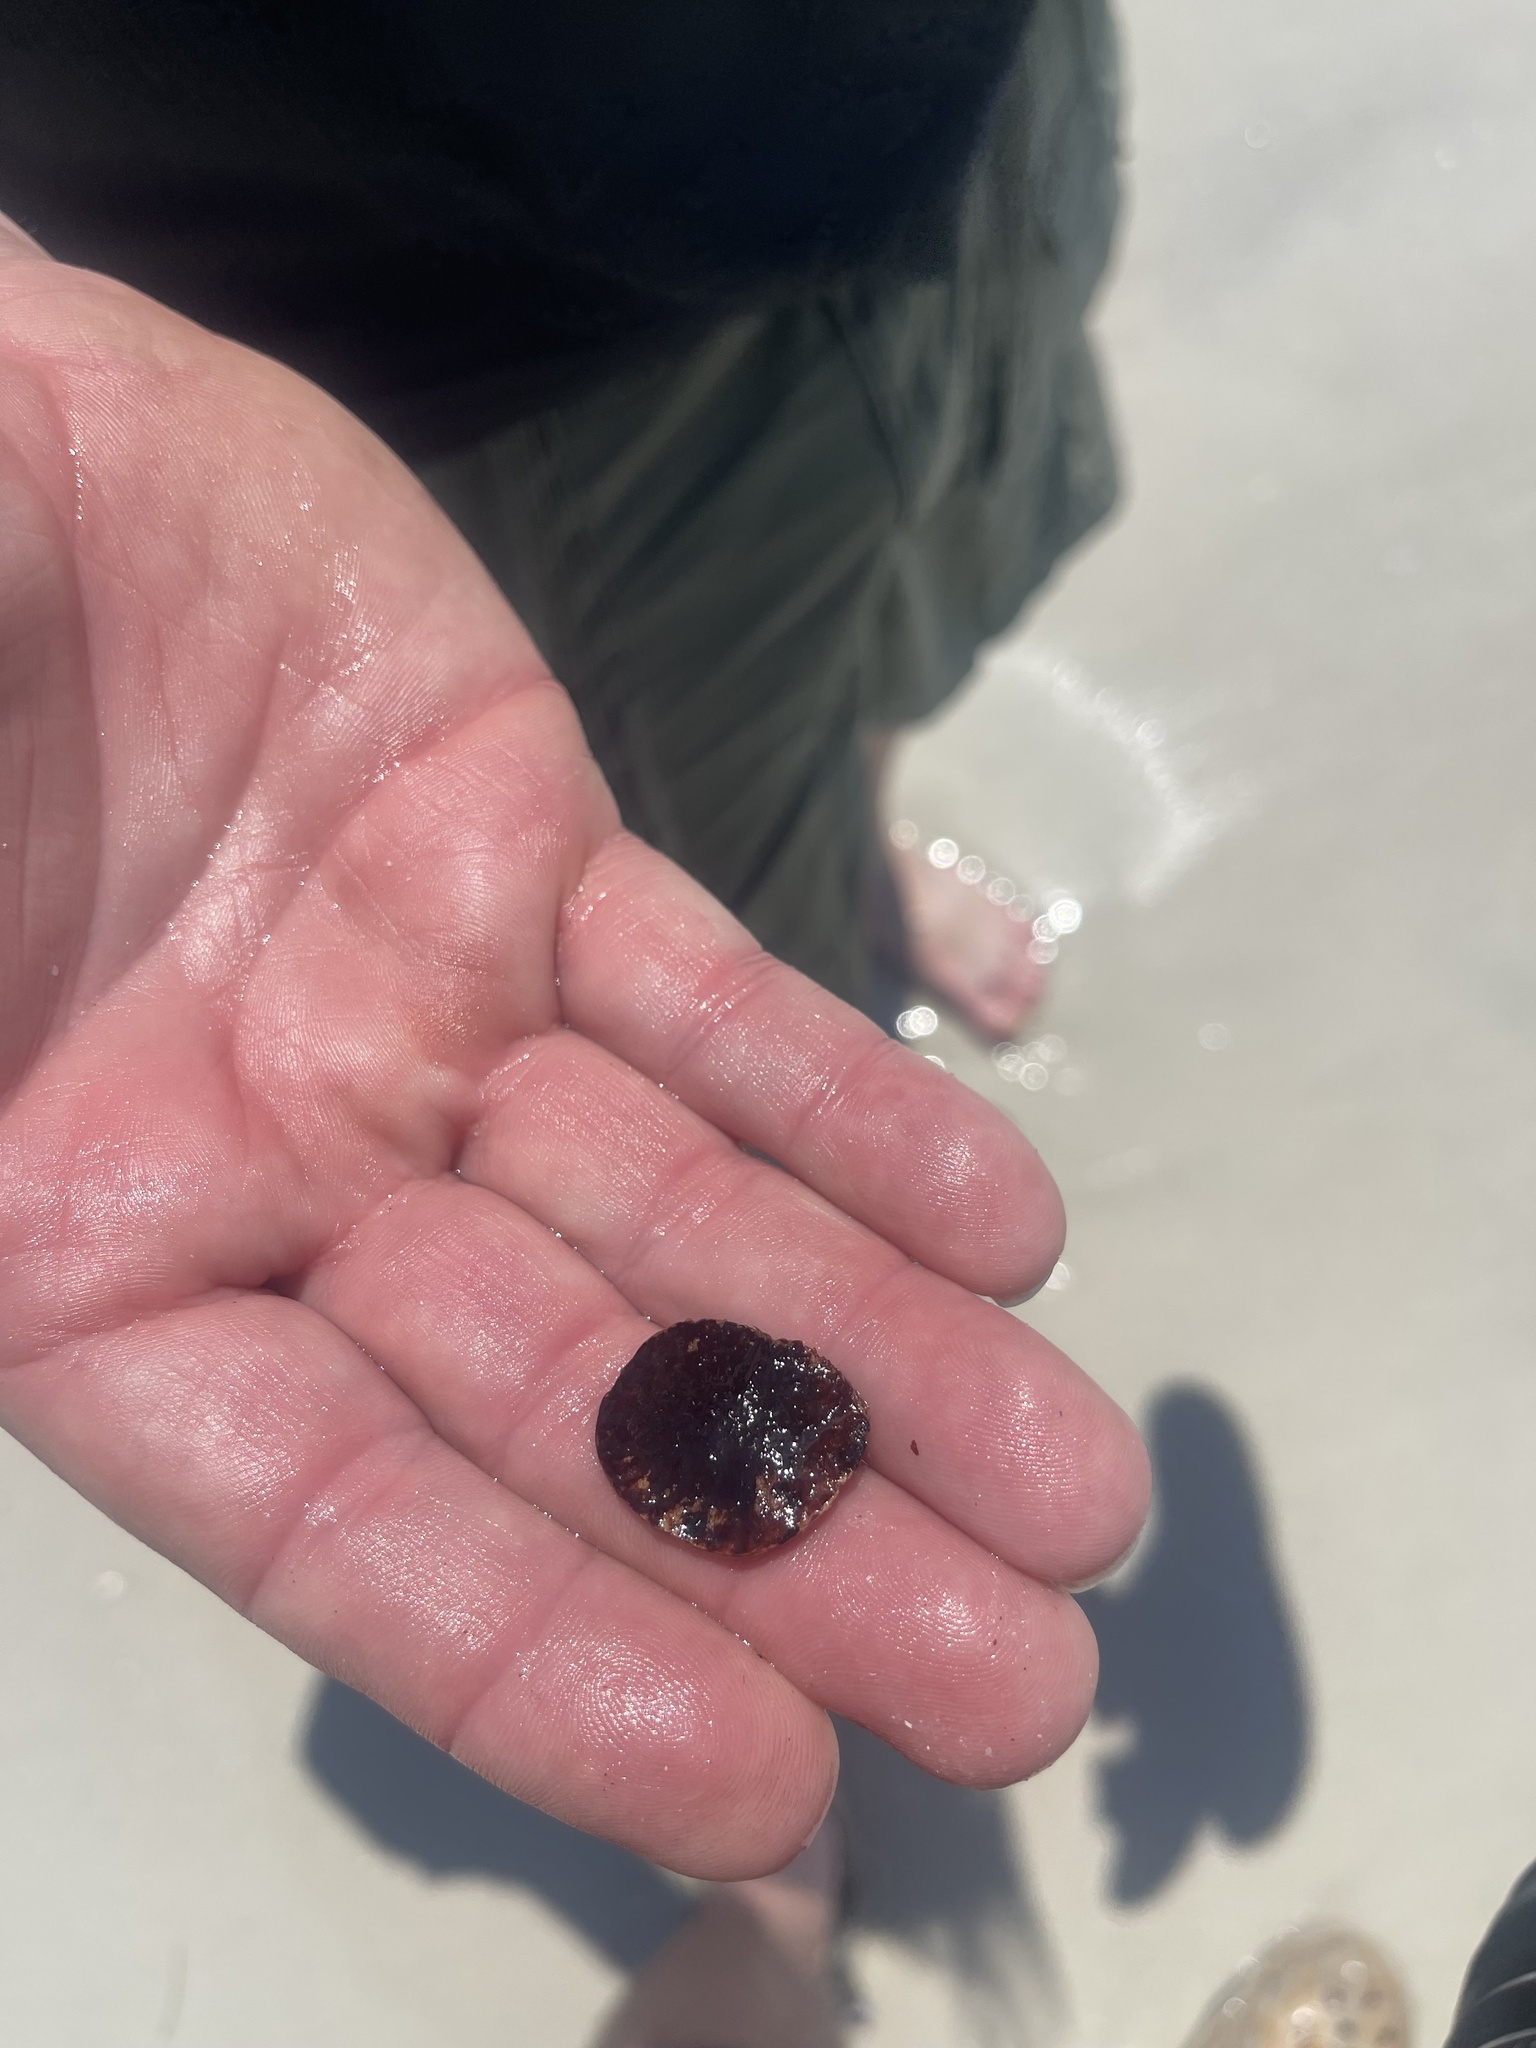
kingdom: Plantae
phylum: Tracheophyta
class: Magnoliopsida
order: Fabales
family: Fabaceae
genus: Dalbergia
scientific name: Dalbergia ecastaphyllum
